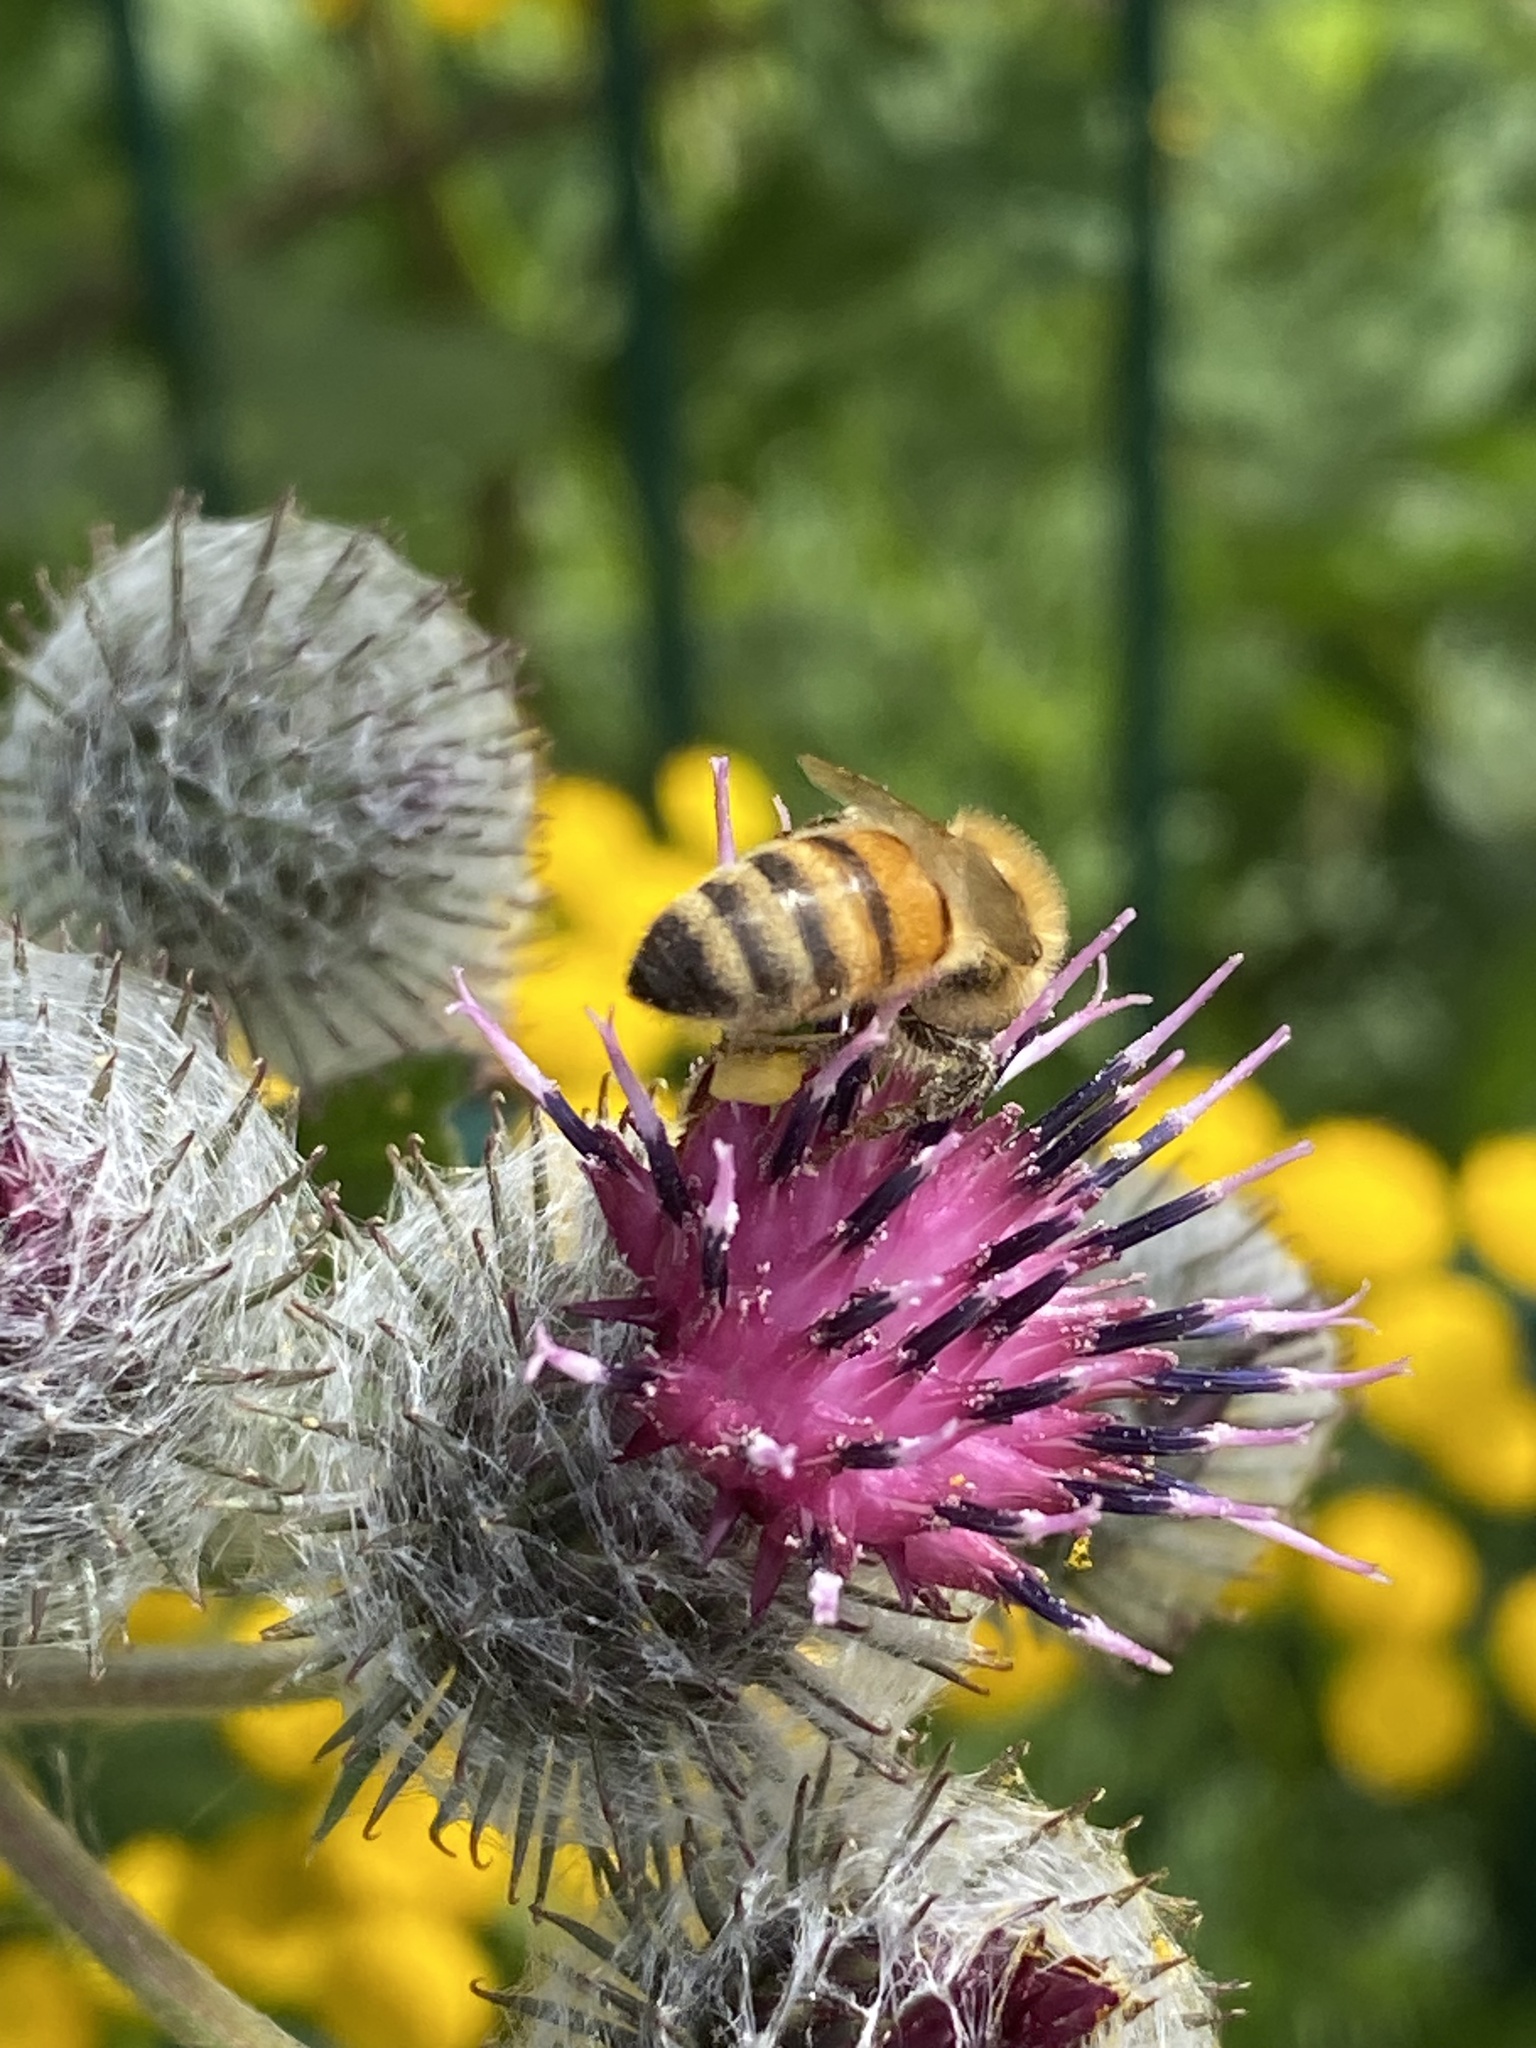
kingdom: Animalia
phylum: Arthropoda
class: Insecta
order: Hymenoptera
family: Apidae
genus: Apis
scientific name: Apis mellifera
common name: Honey bee
